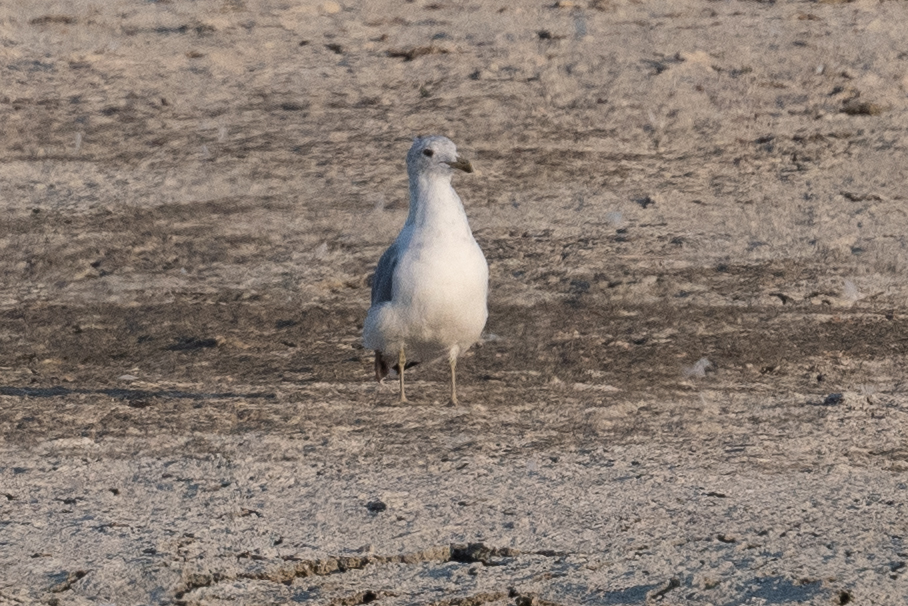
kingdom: Animalia
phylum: Chordata
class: Aves
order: Charadriiformes
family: Laridae
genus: Larus
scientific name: Larus californicus
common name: California gull
